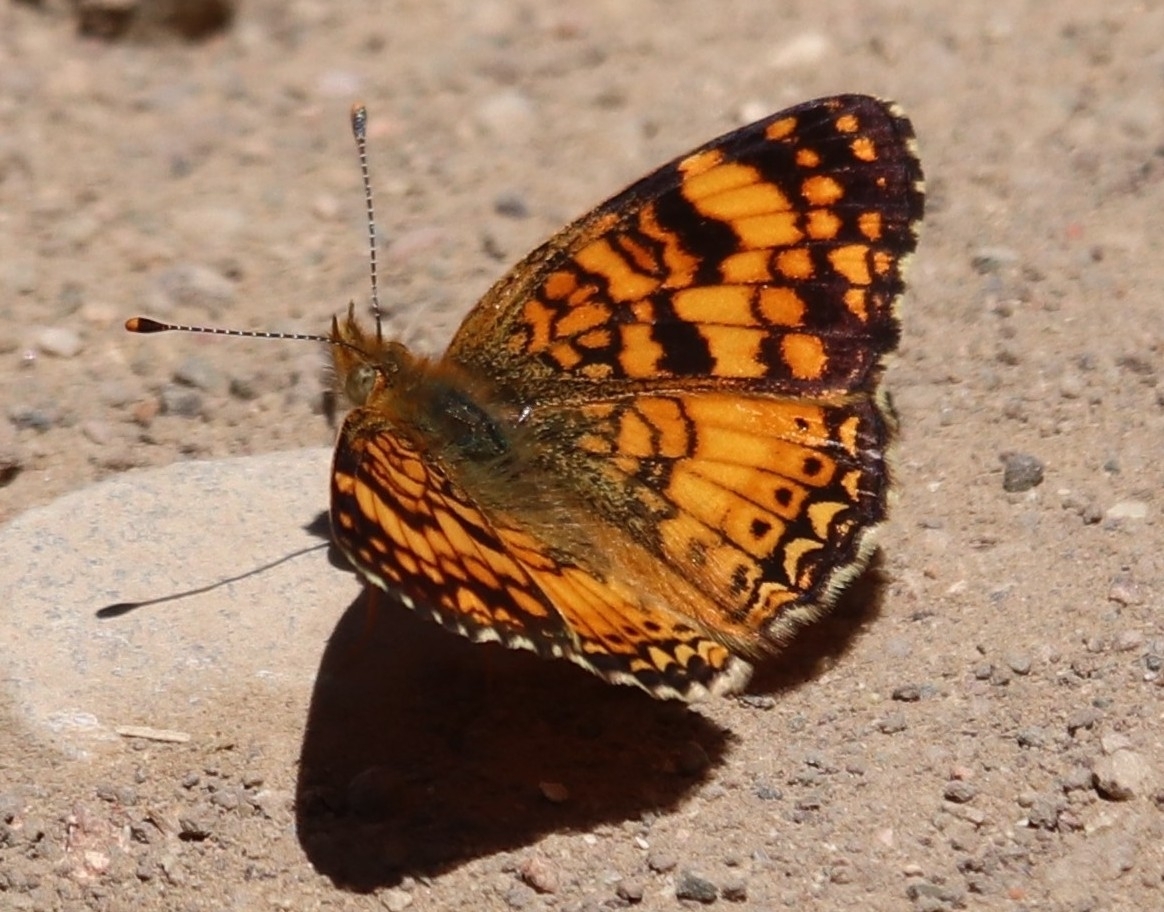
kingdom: Animalia
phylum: Arthropoda
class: Insecta
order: Lepidoptera
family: Nymphalidae
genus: Eresia
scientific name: Eresia aveyrona
